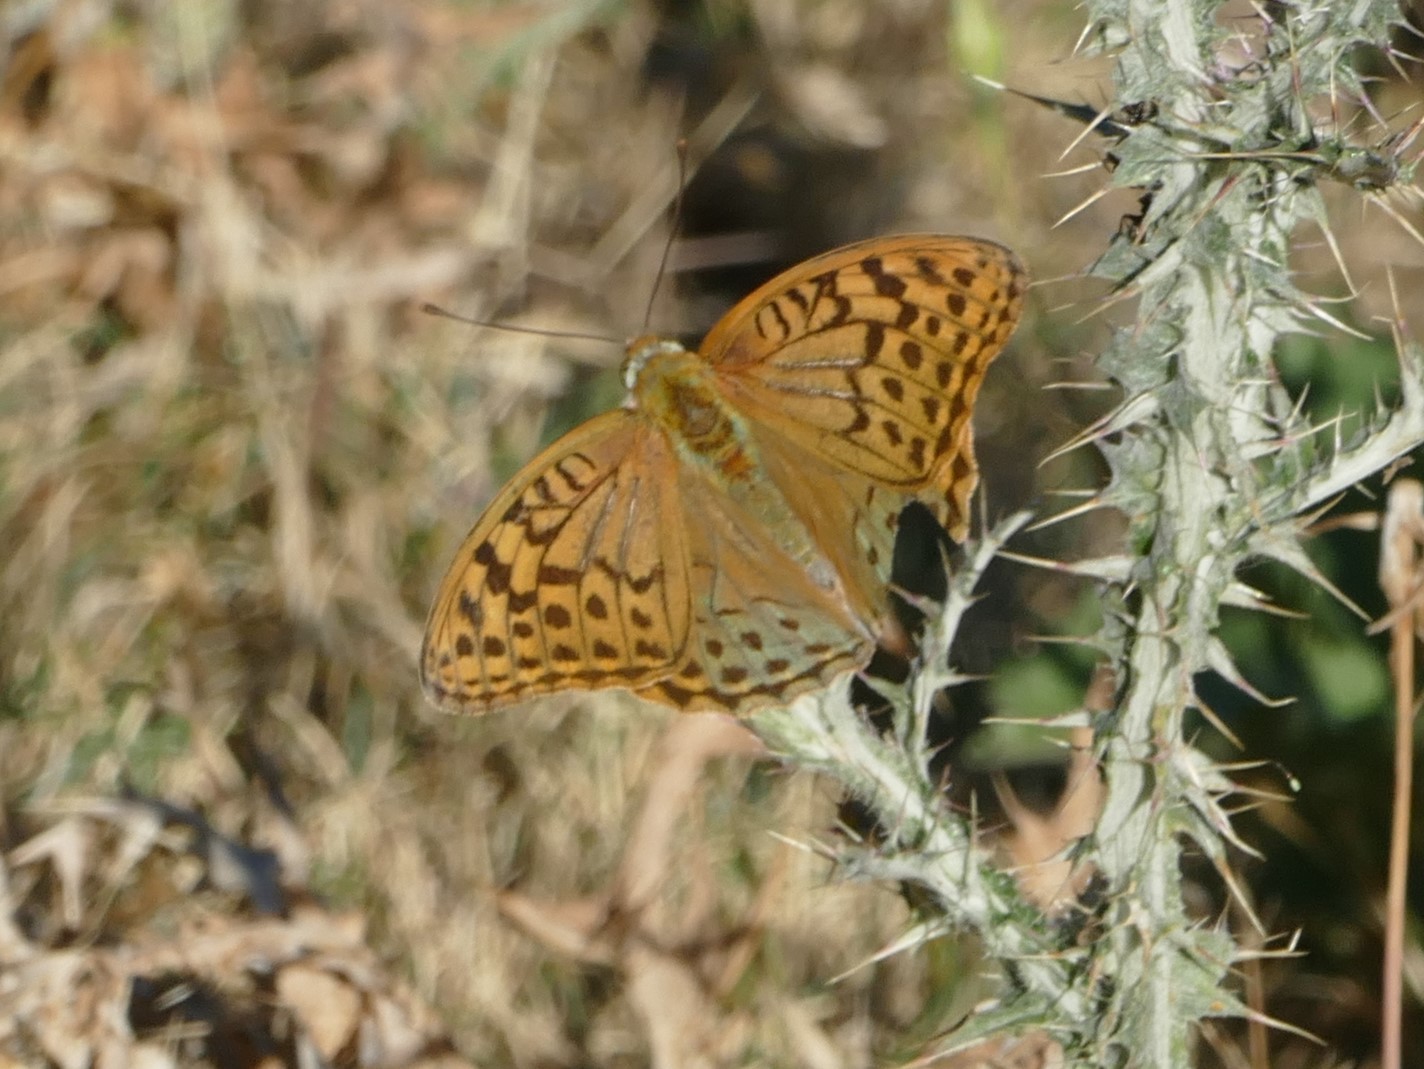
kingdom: Animalia
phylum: Arthropoda
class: Insecta
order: Lepidoptera
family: Nymphalidae
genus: Damora
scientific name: Damora pandora
